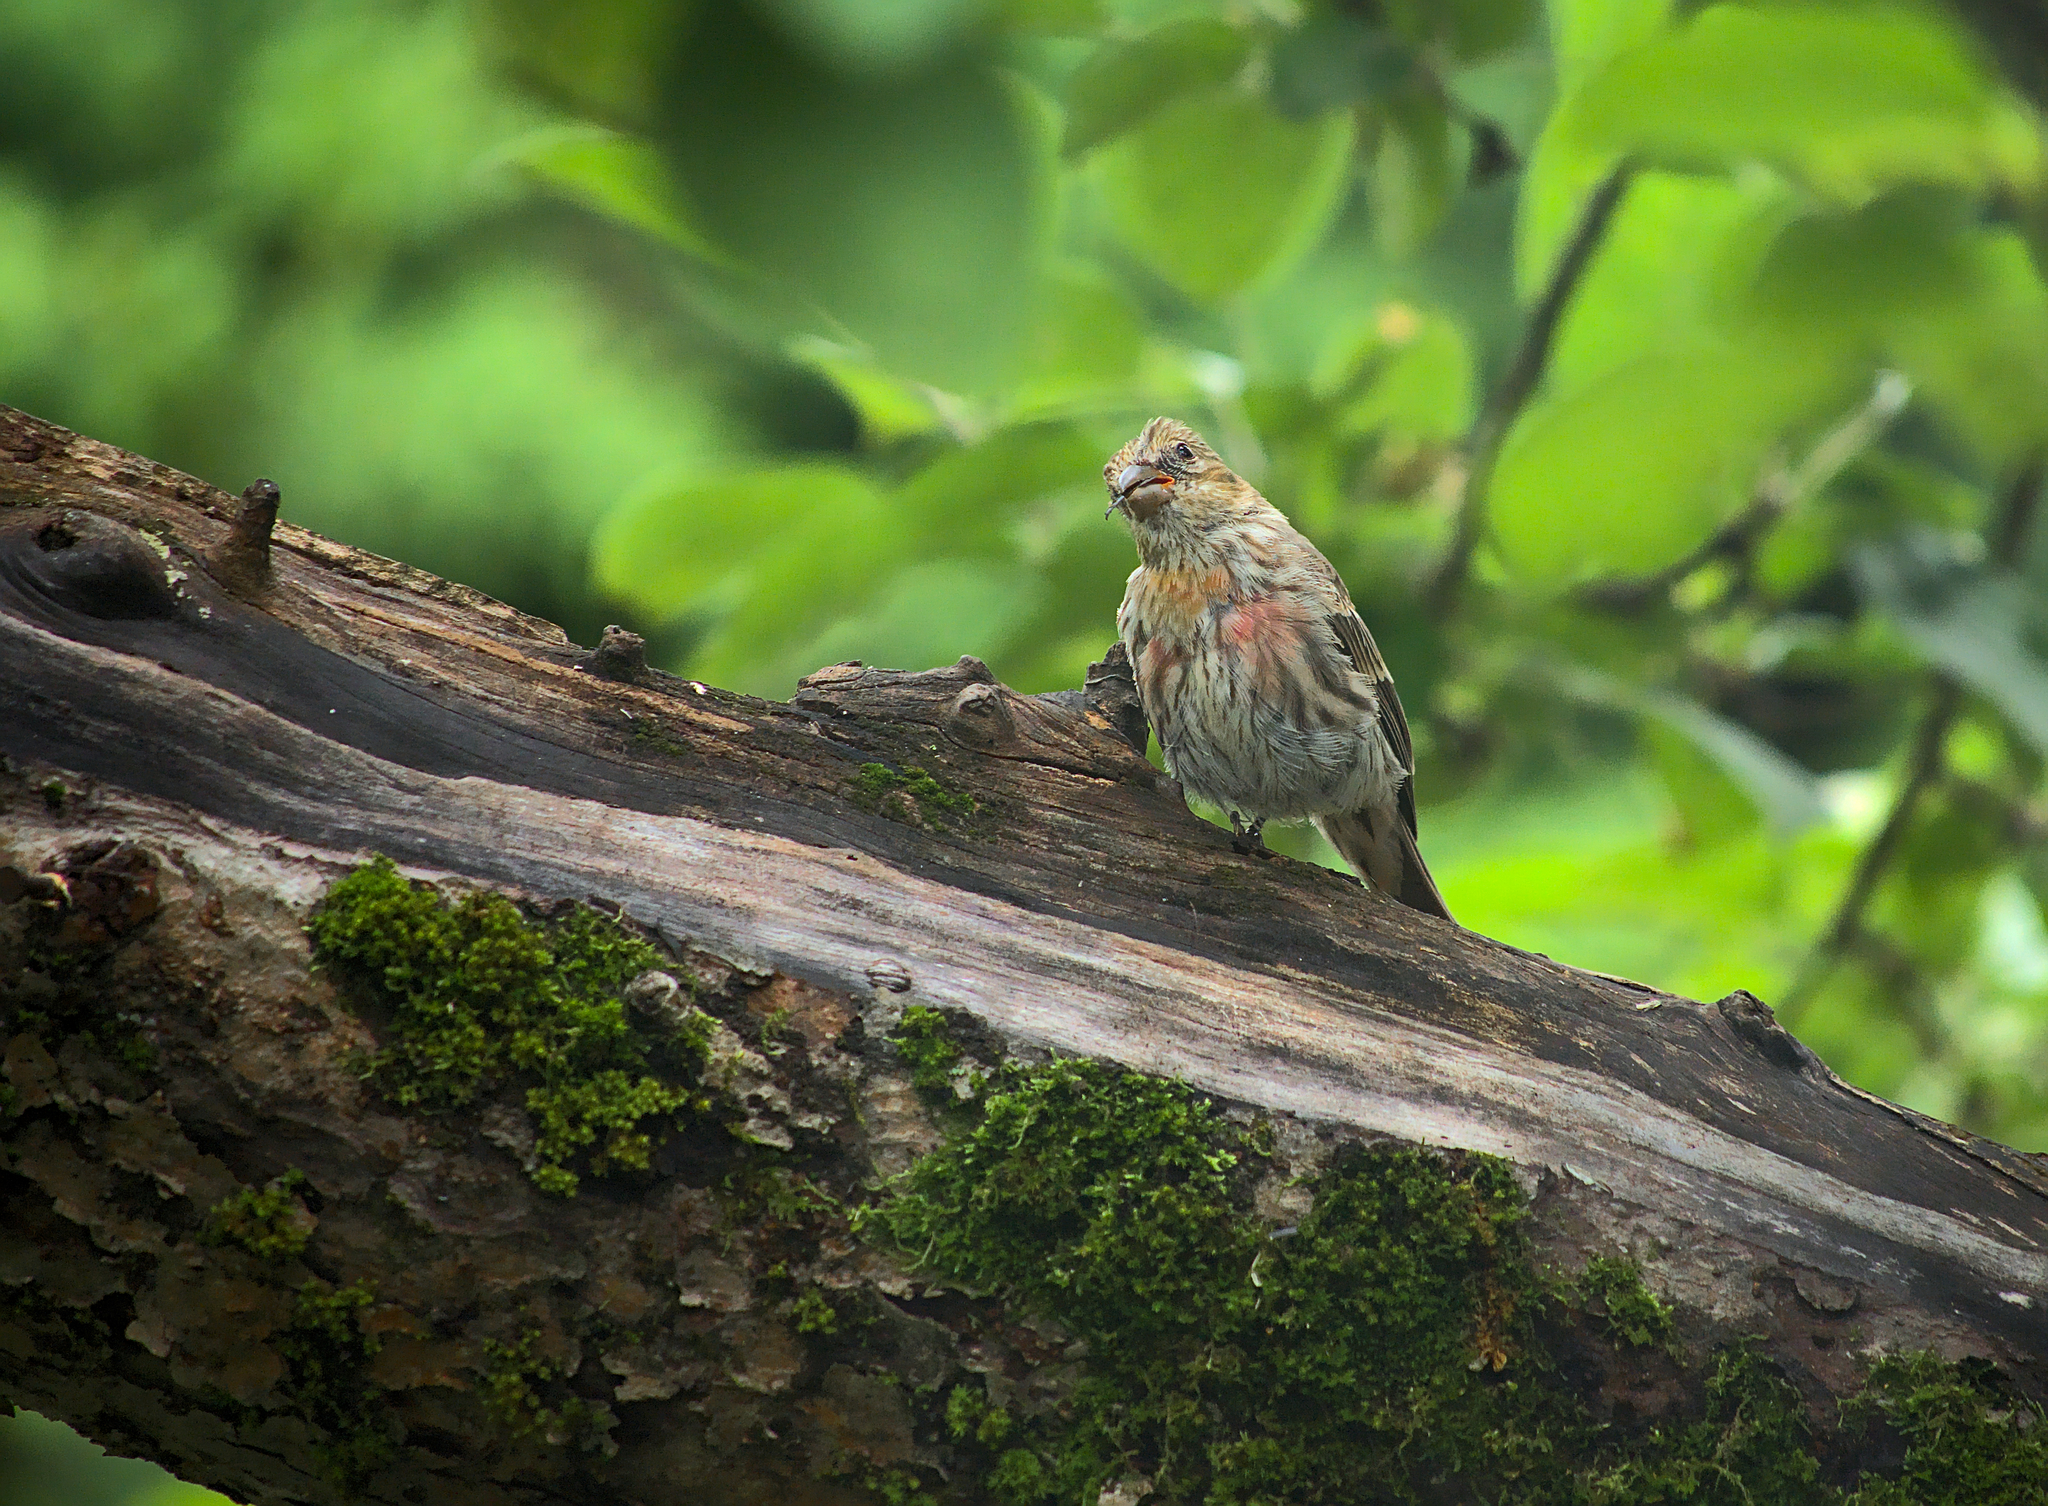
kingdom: Animalia
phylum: Chordata
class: Aves
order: Passeriformes
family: Fringillidae
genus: Haemorhous
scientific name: Haemorhous mexicanus
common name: House finch
